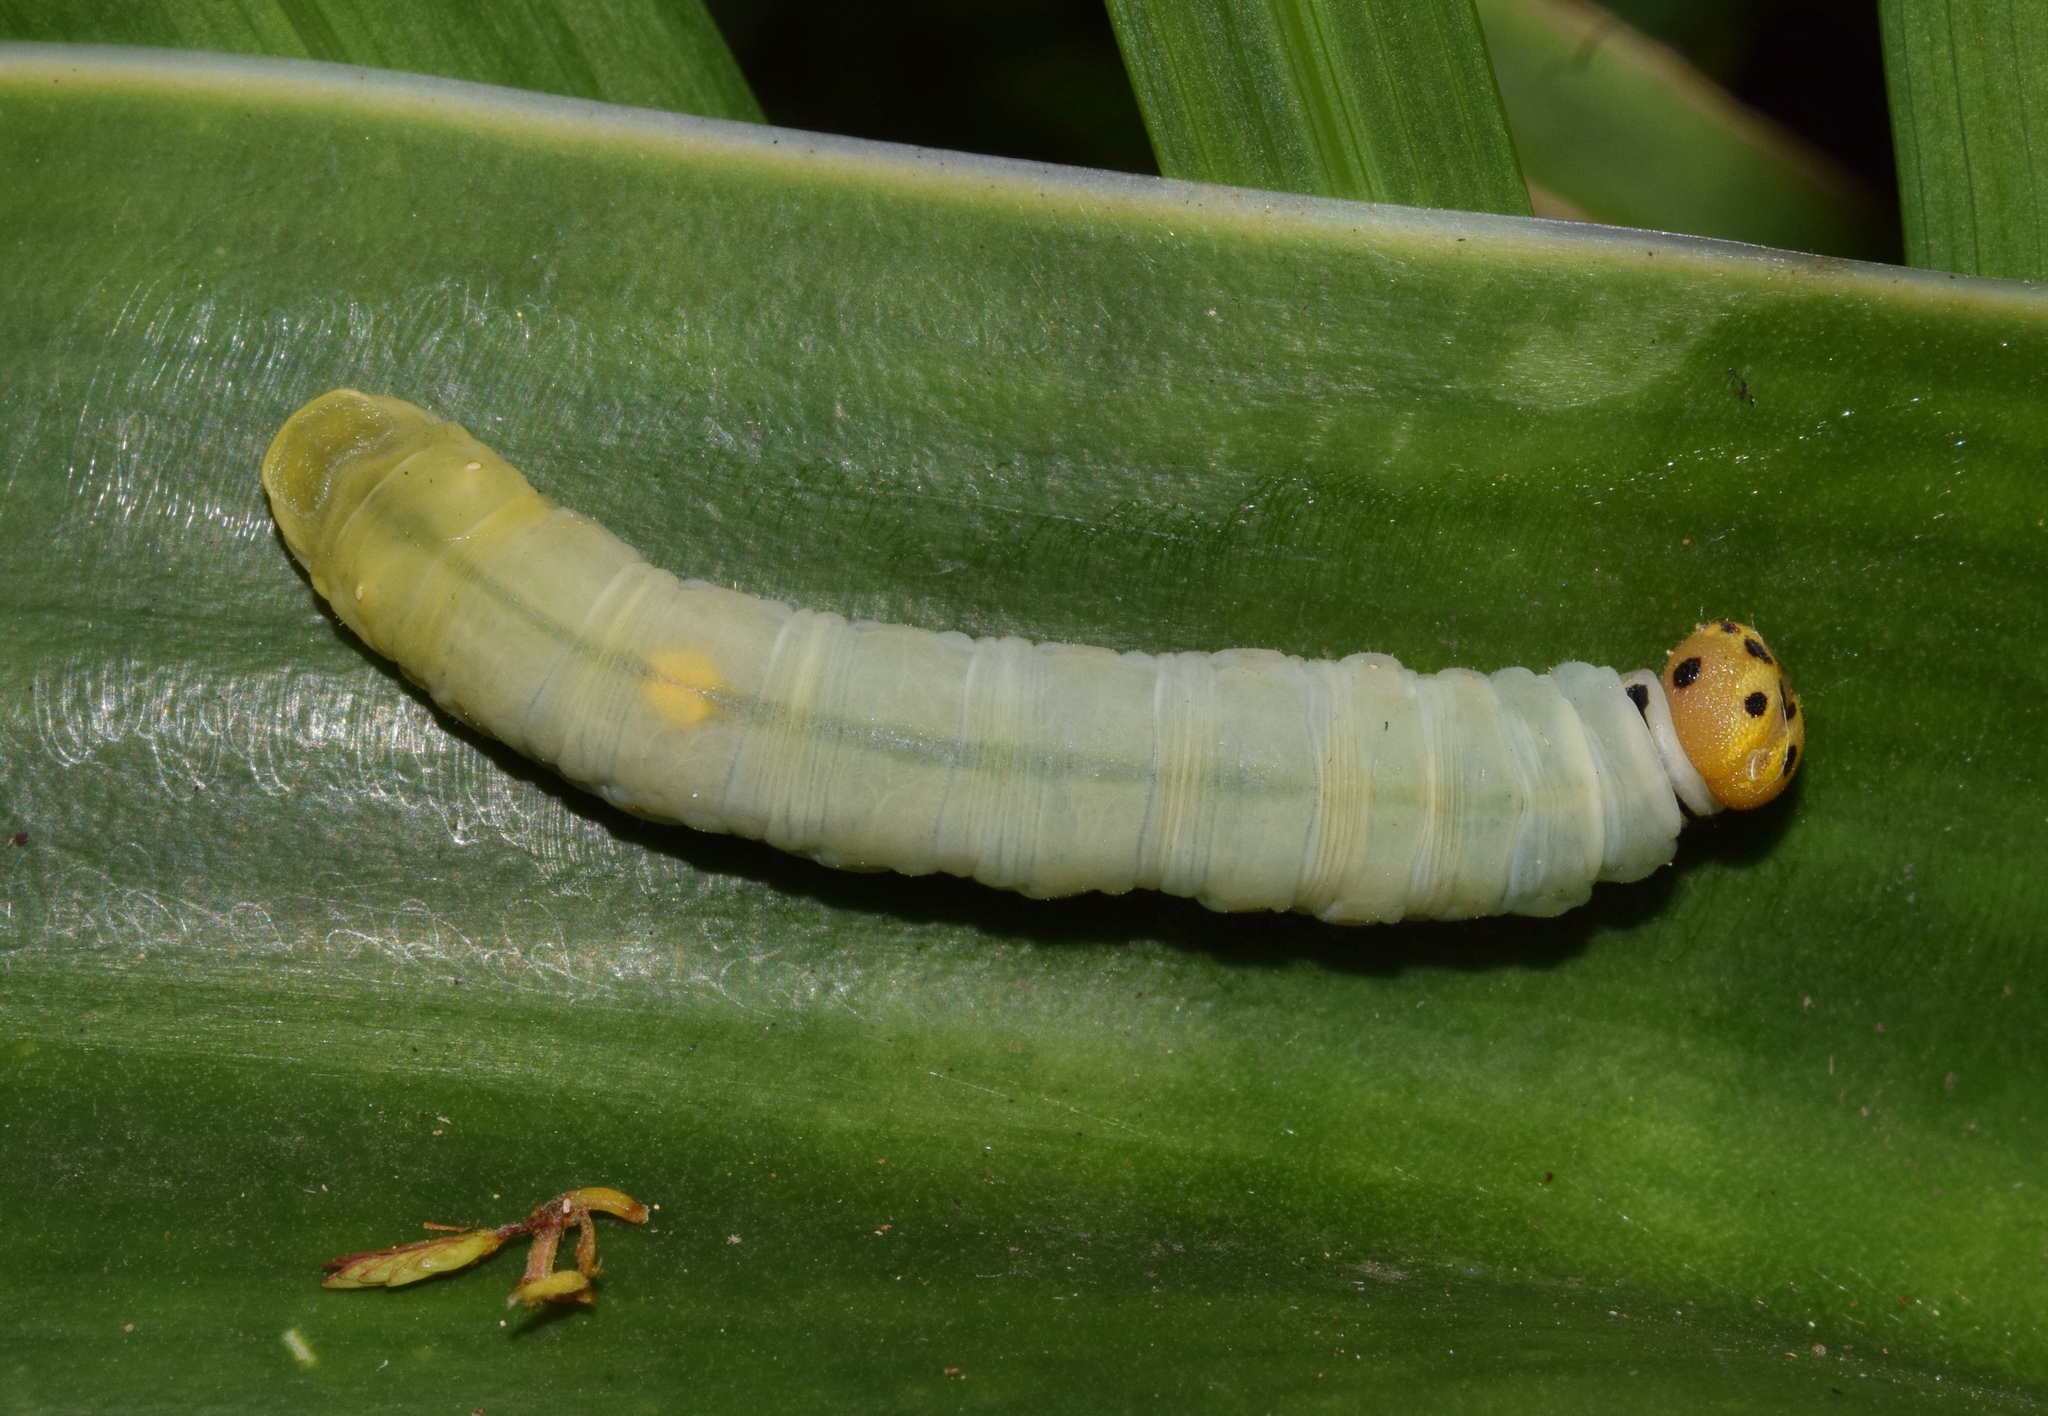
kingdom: Animalia
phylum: Arthropoda
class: Insecta
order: Lepidoptera
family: Hesperiidae
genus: Artitropa
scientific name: Artitropa erinnys
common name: Bush nightfighter
